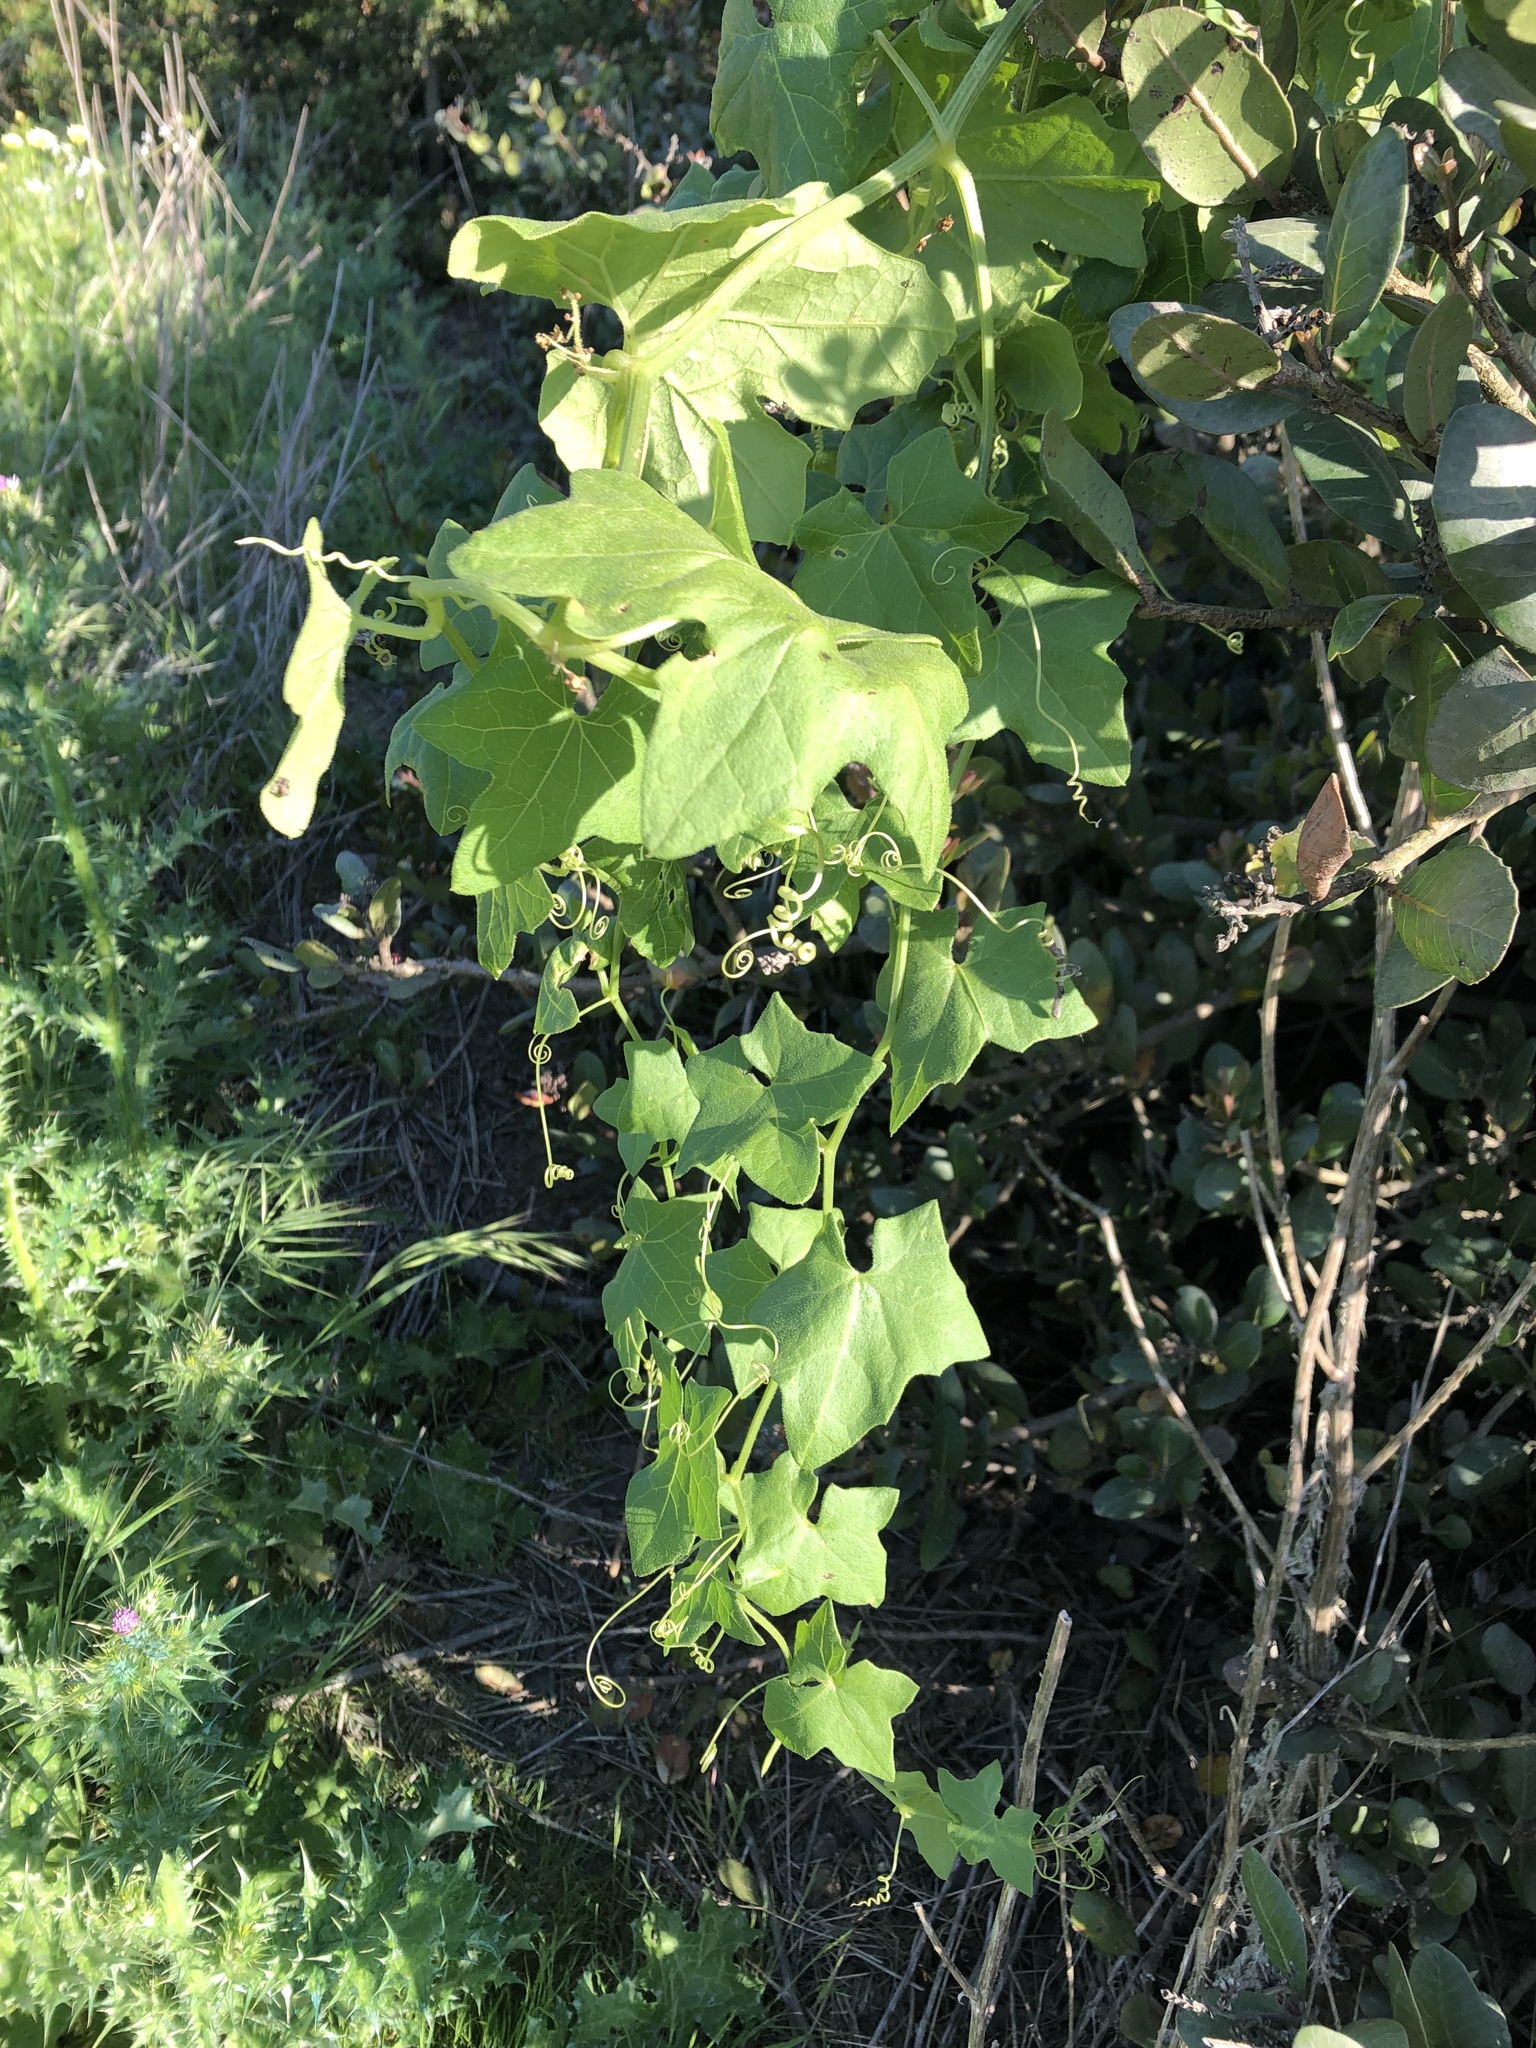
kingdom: Plantae
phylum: Tracheophyta
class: Magnoliopsida
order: Cucurbitales
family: Cucurbitaceae
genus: Marah
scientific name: Marah macrocarpa
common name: Cucamonga manroot
